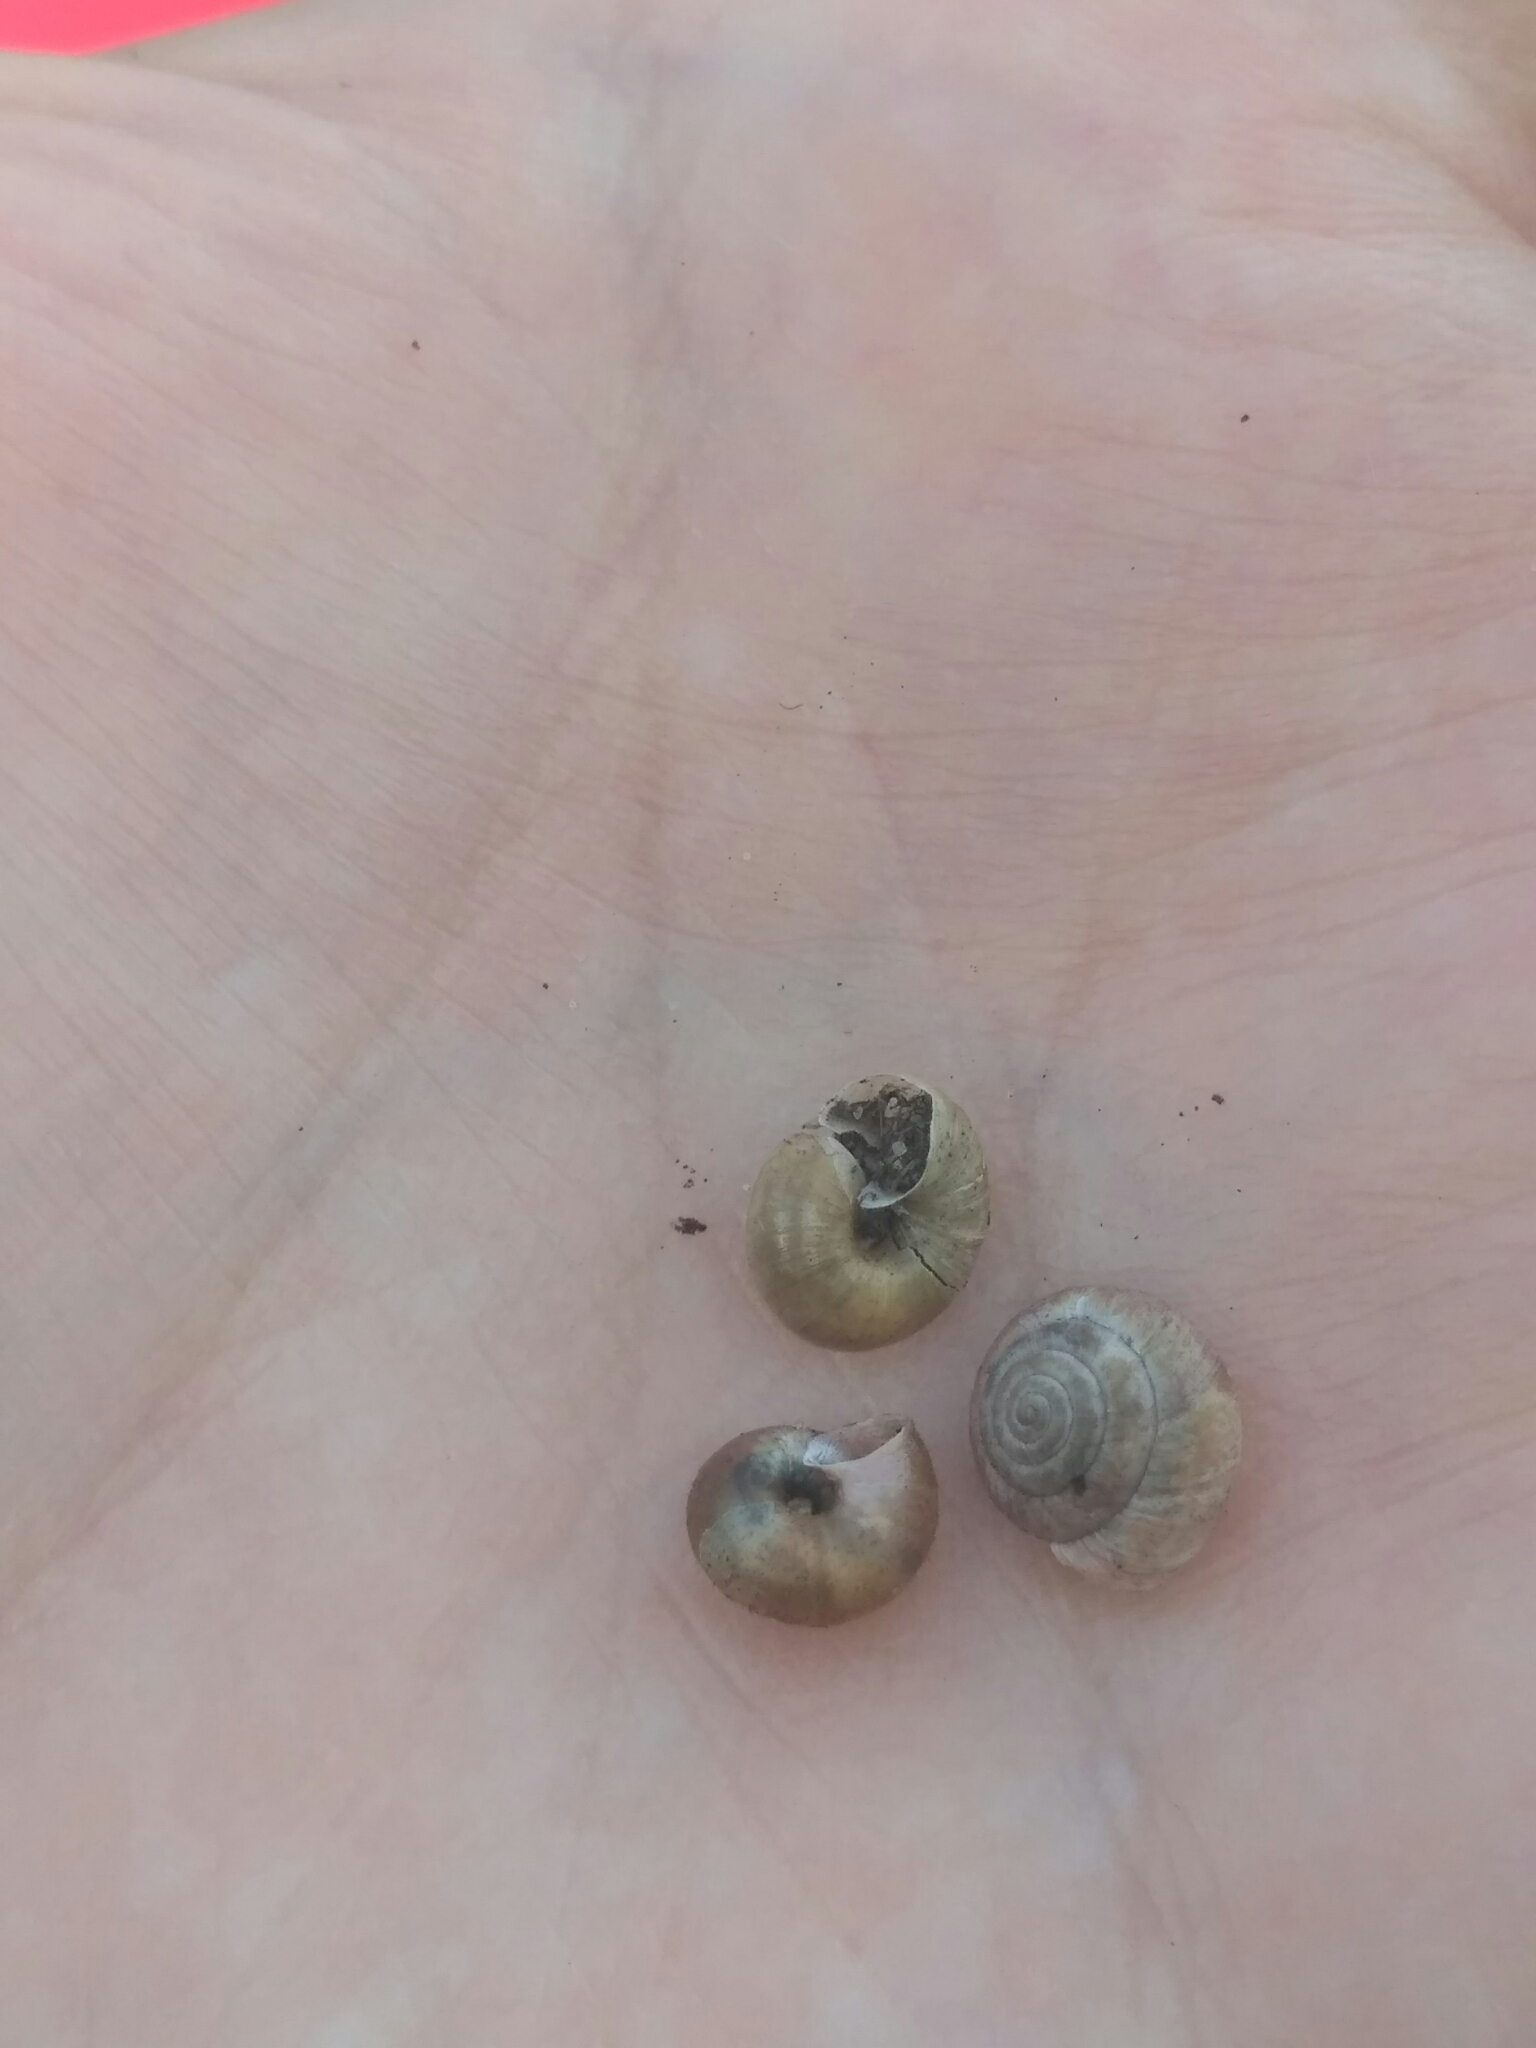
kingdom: Animalia
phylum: Mollusca
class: Gastropoda
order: Stylommatophora
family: Hygromiidae
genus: Trochulus
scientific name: Trochulus hispidus
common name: Hairy snail
